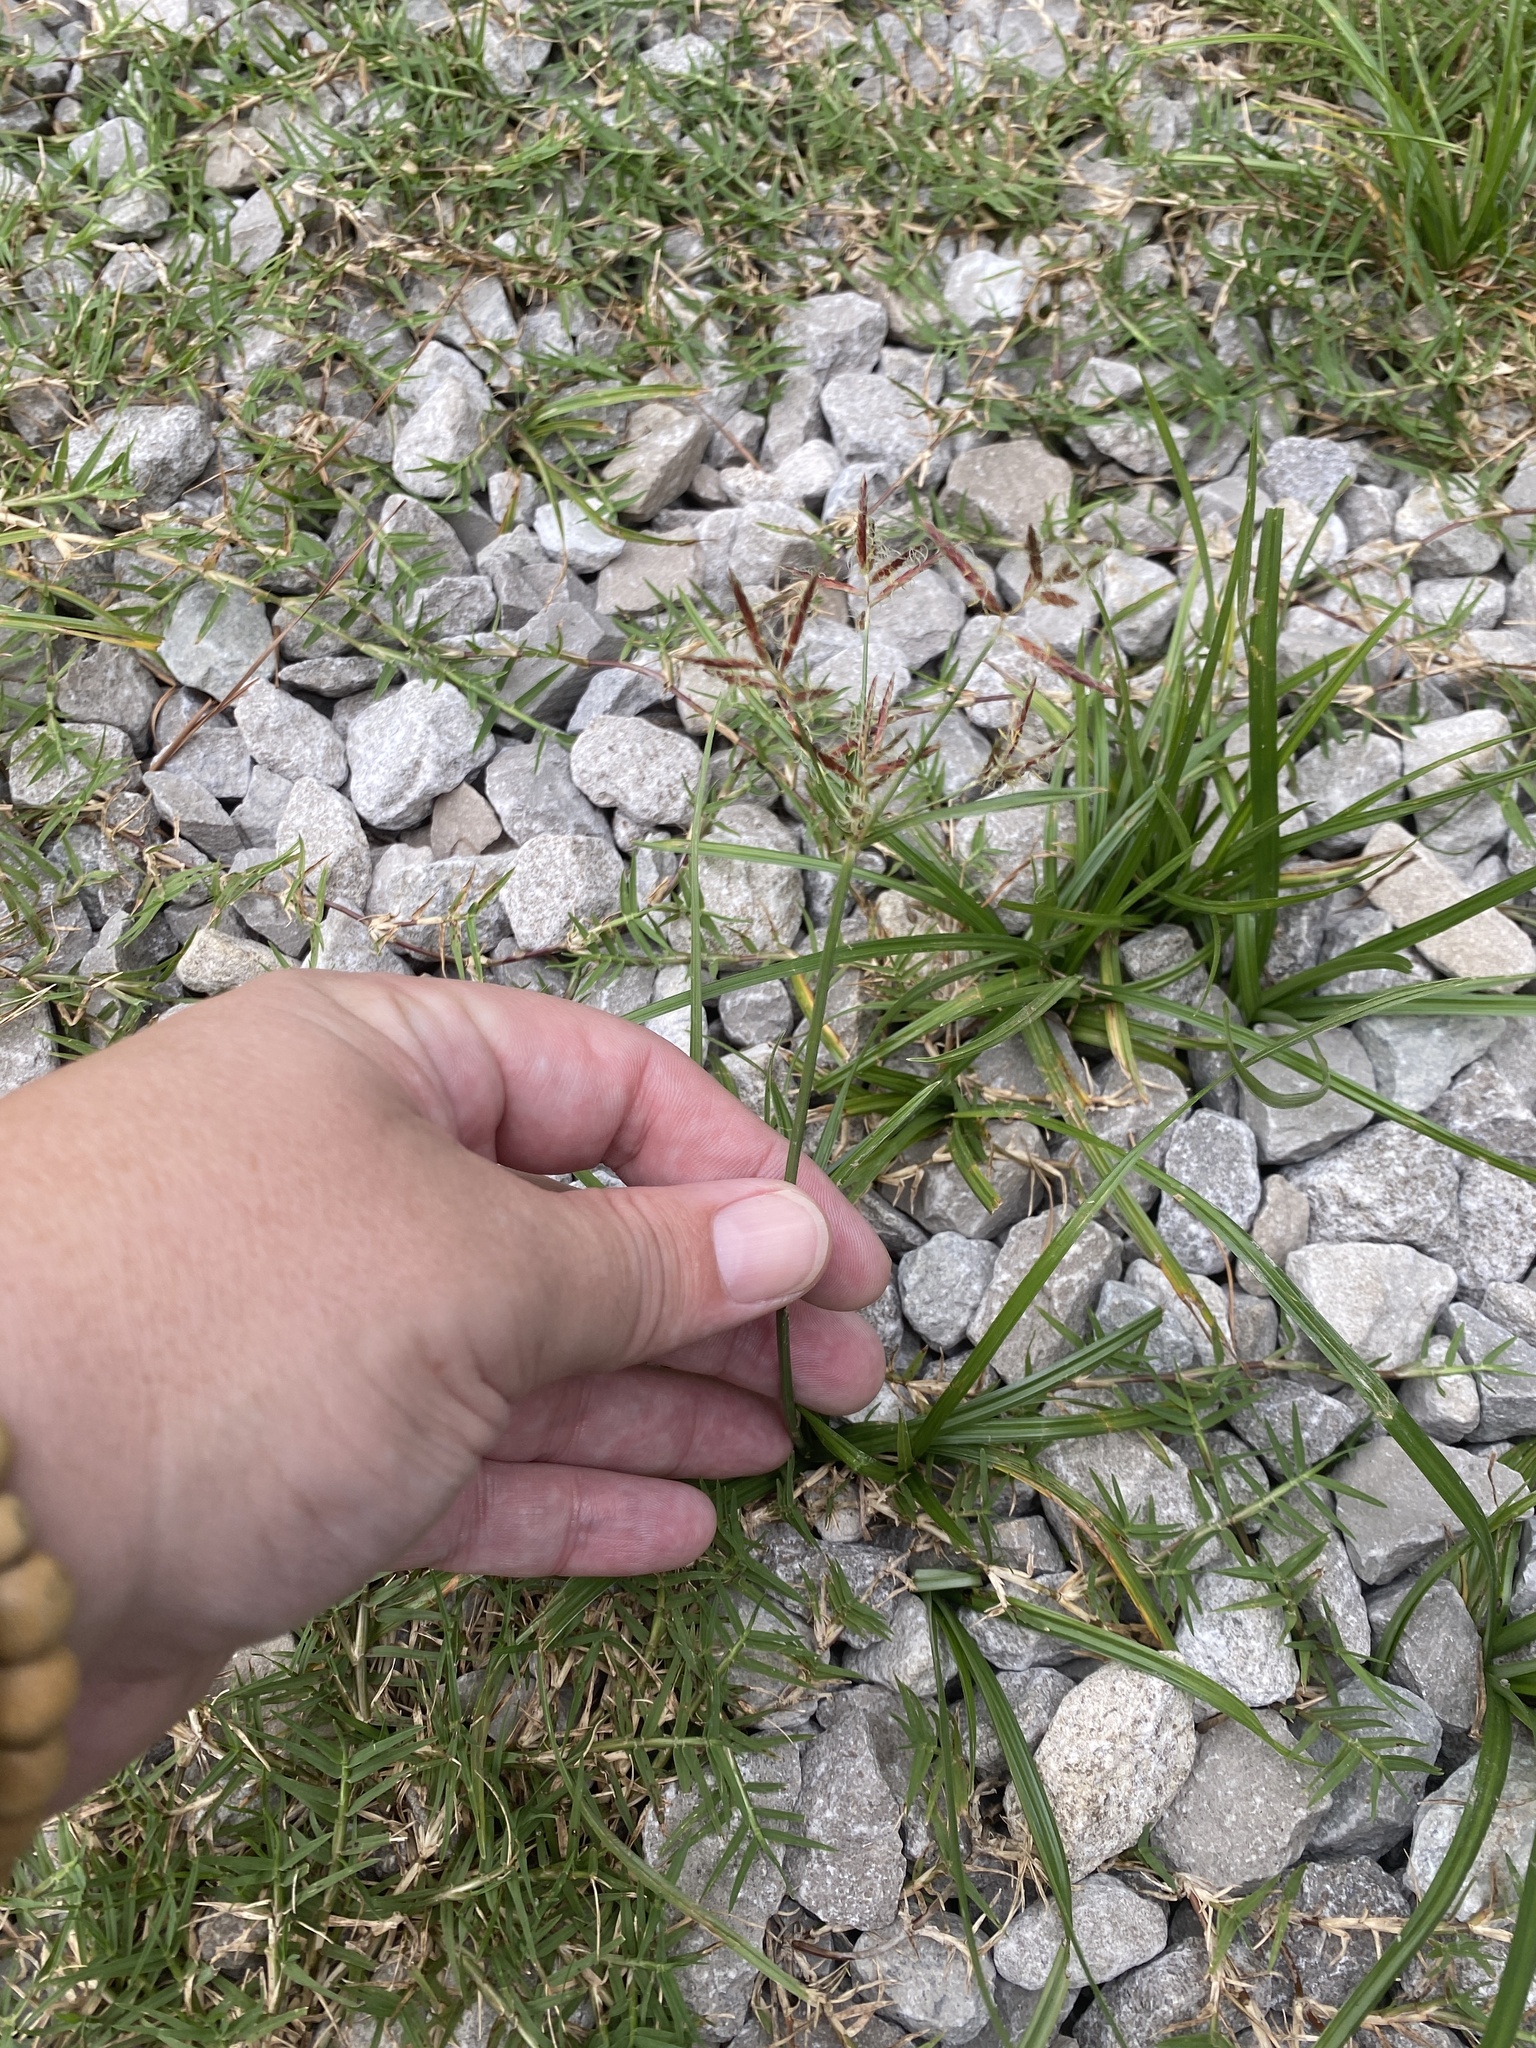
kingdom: Plantae
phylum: Tracheophyta
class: Liliopsida
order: Poales
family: Cyperaceae
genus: Cyperus
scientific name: Cyperus rotundus
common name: Nutgrass
